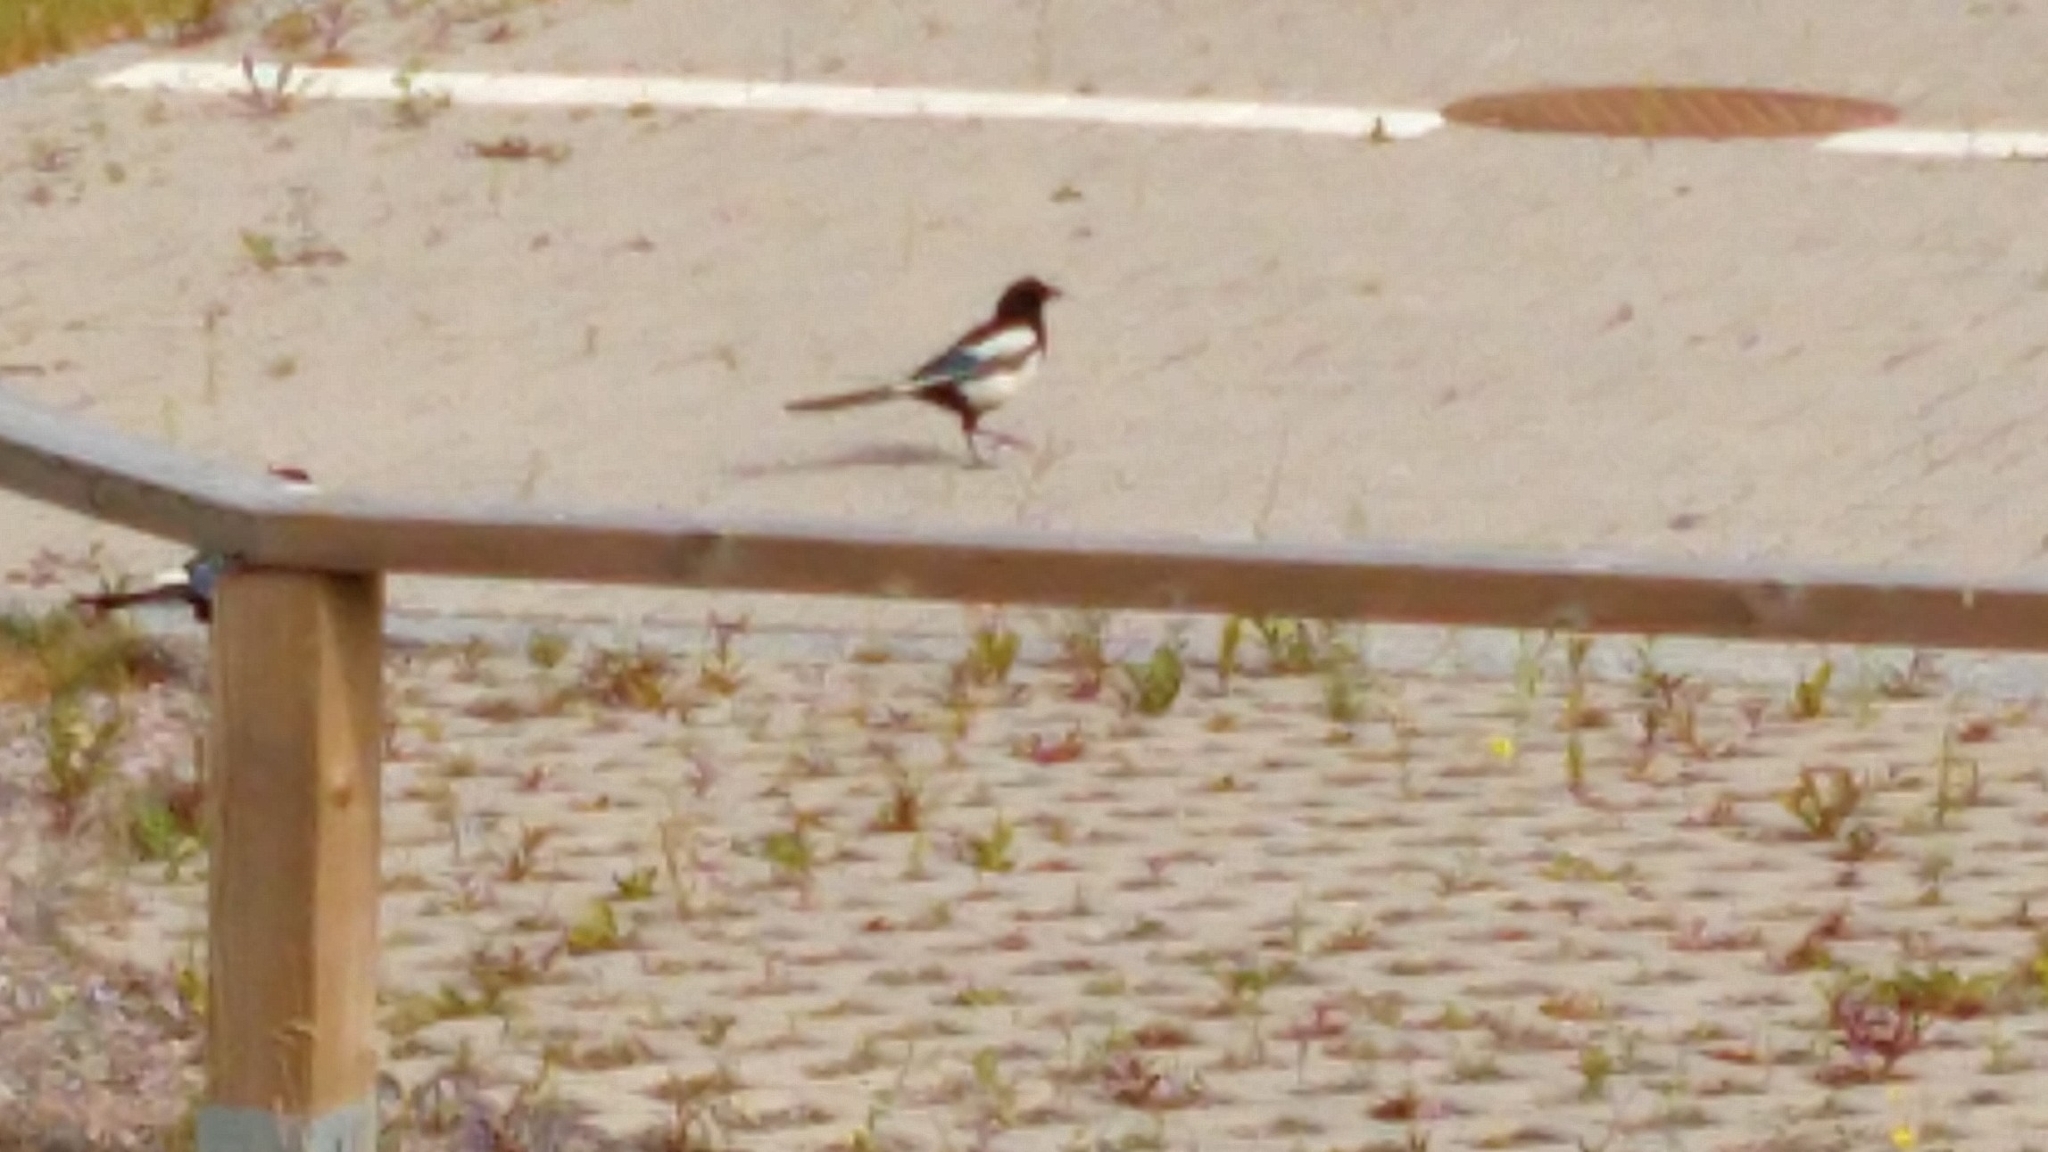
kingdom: Animalia
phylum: Chordata
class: Aves
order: Passeriformes
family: Corvidae
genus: Pica
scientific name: Pica pica
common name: Eurasian magpie
